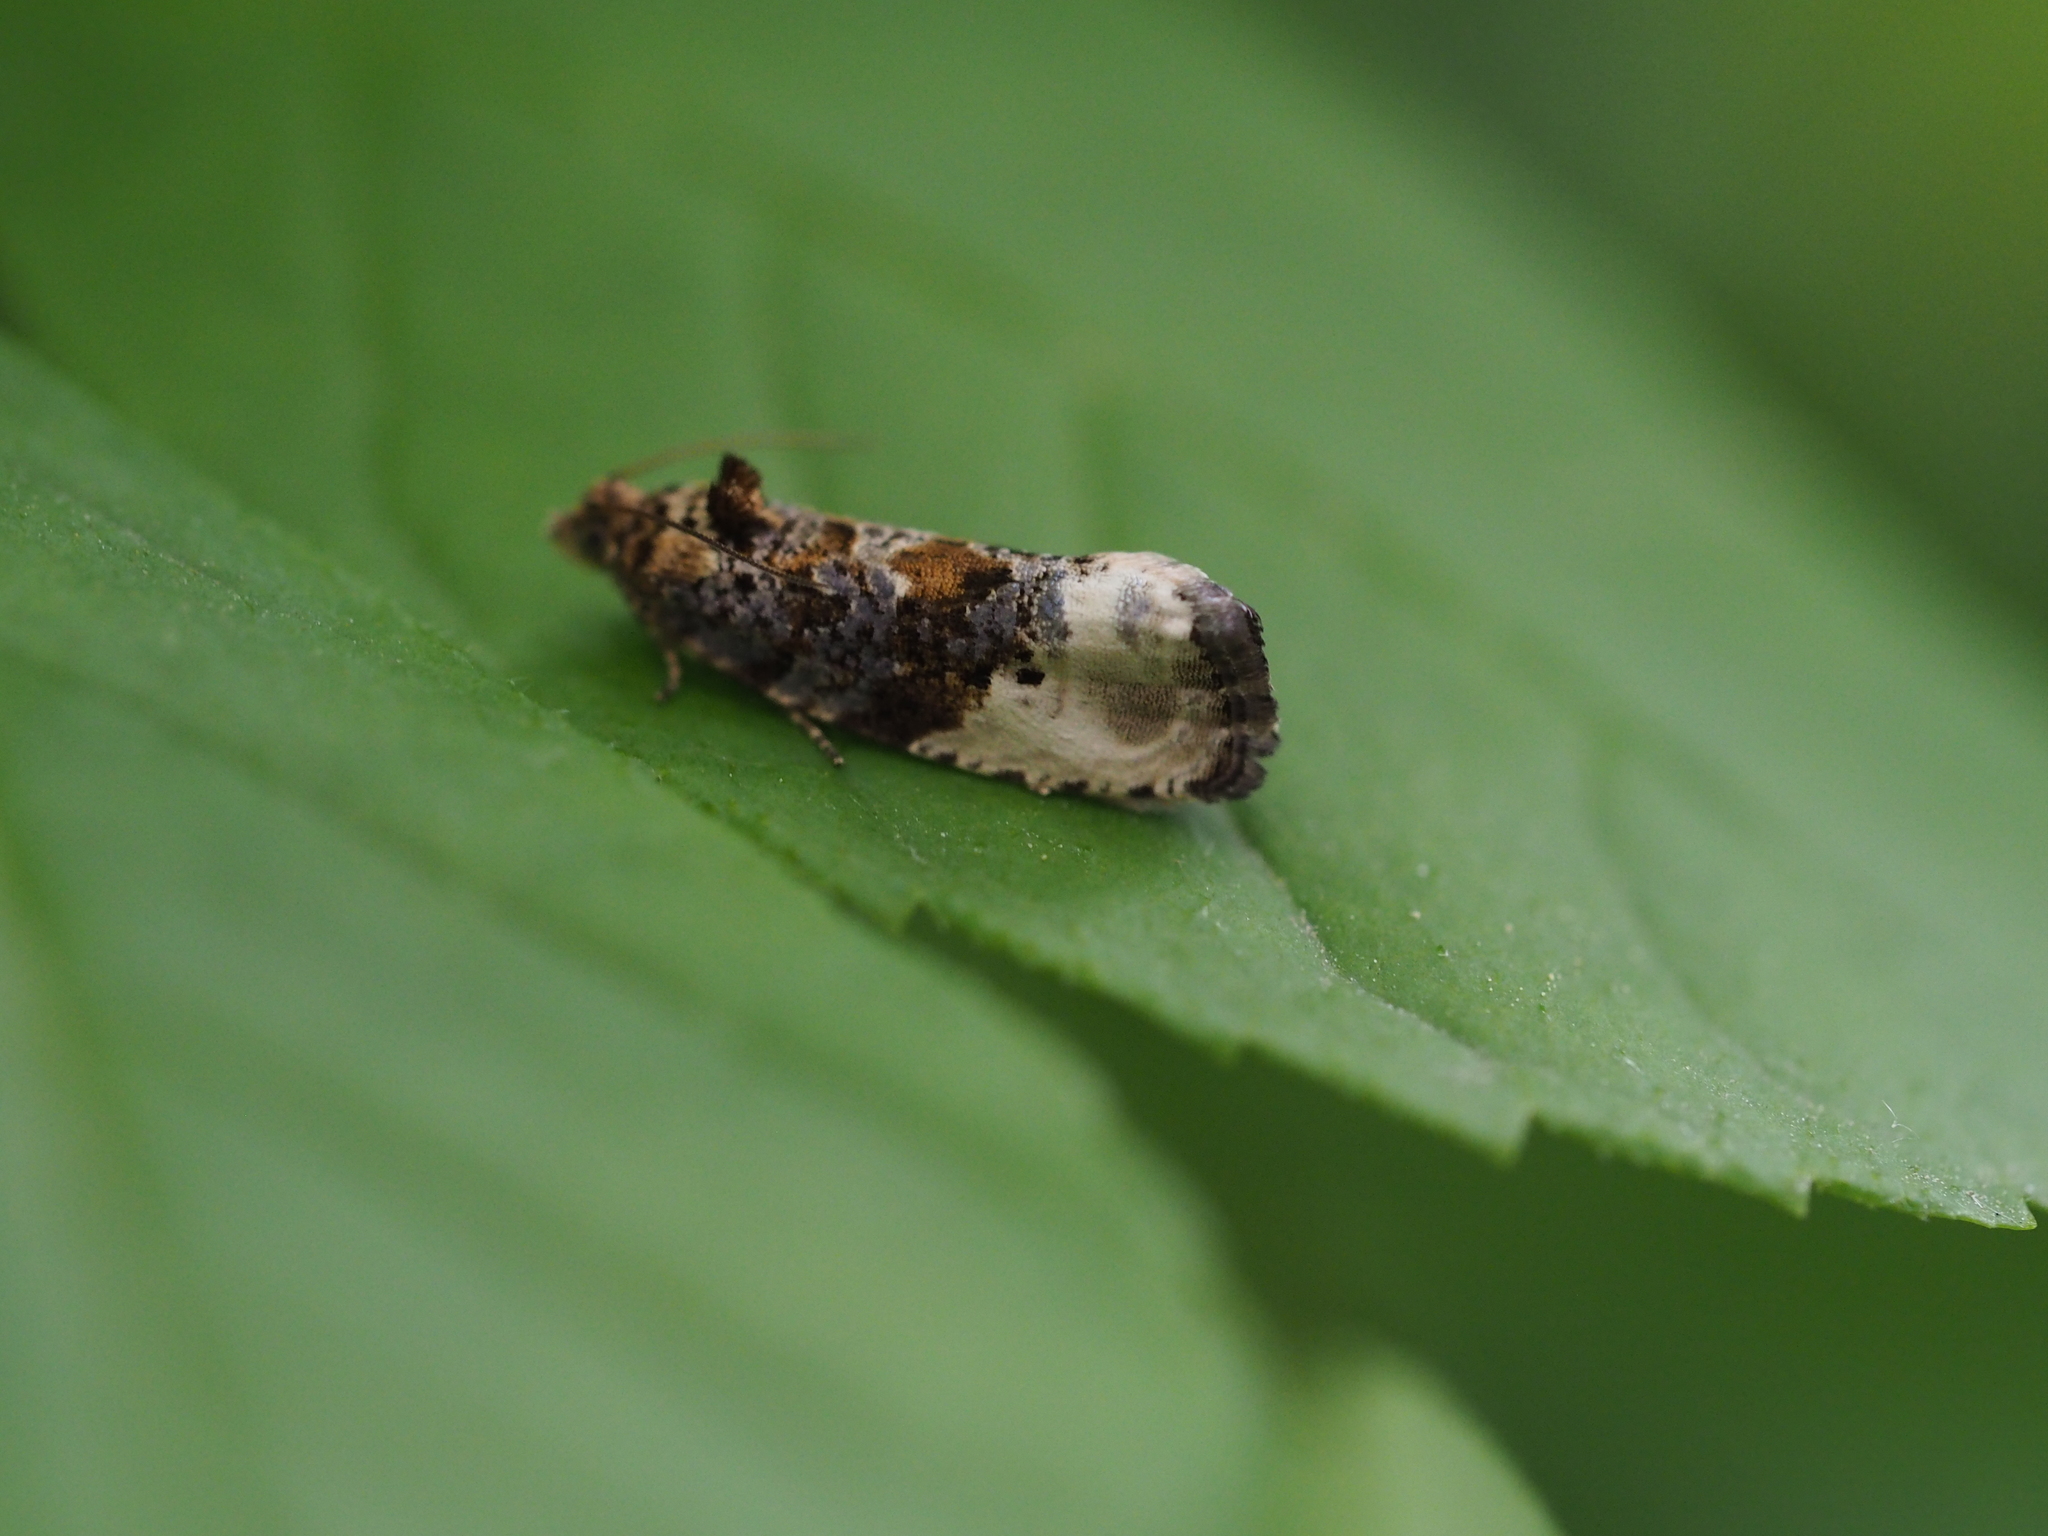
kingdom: Animalia
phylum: Arthropoda
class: Insecta
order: Lepidoptera
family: Tortricidae
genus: Hedya
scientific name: Hedya nubiferana
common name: Marbled orchard tortrix
